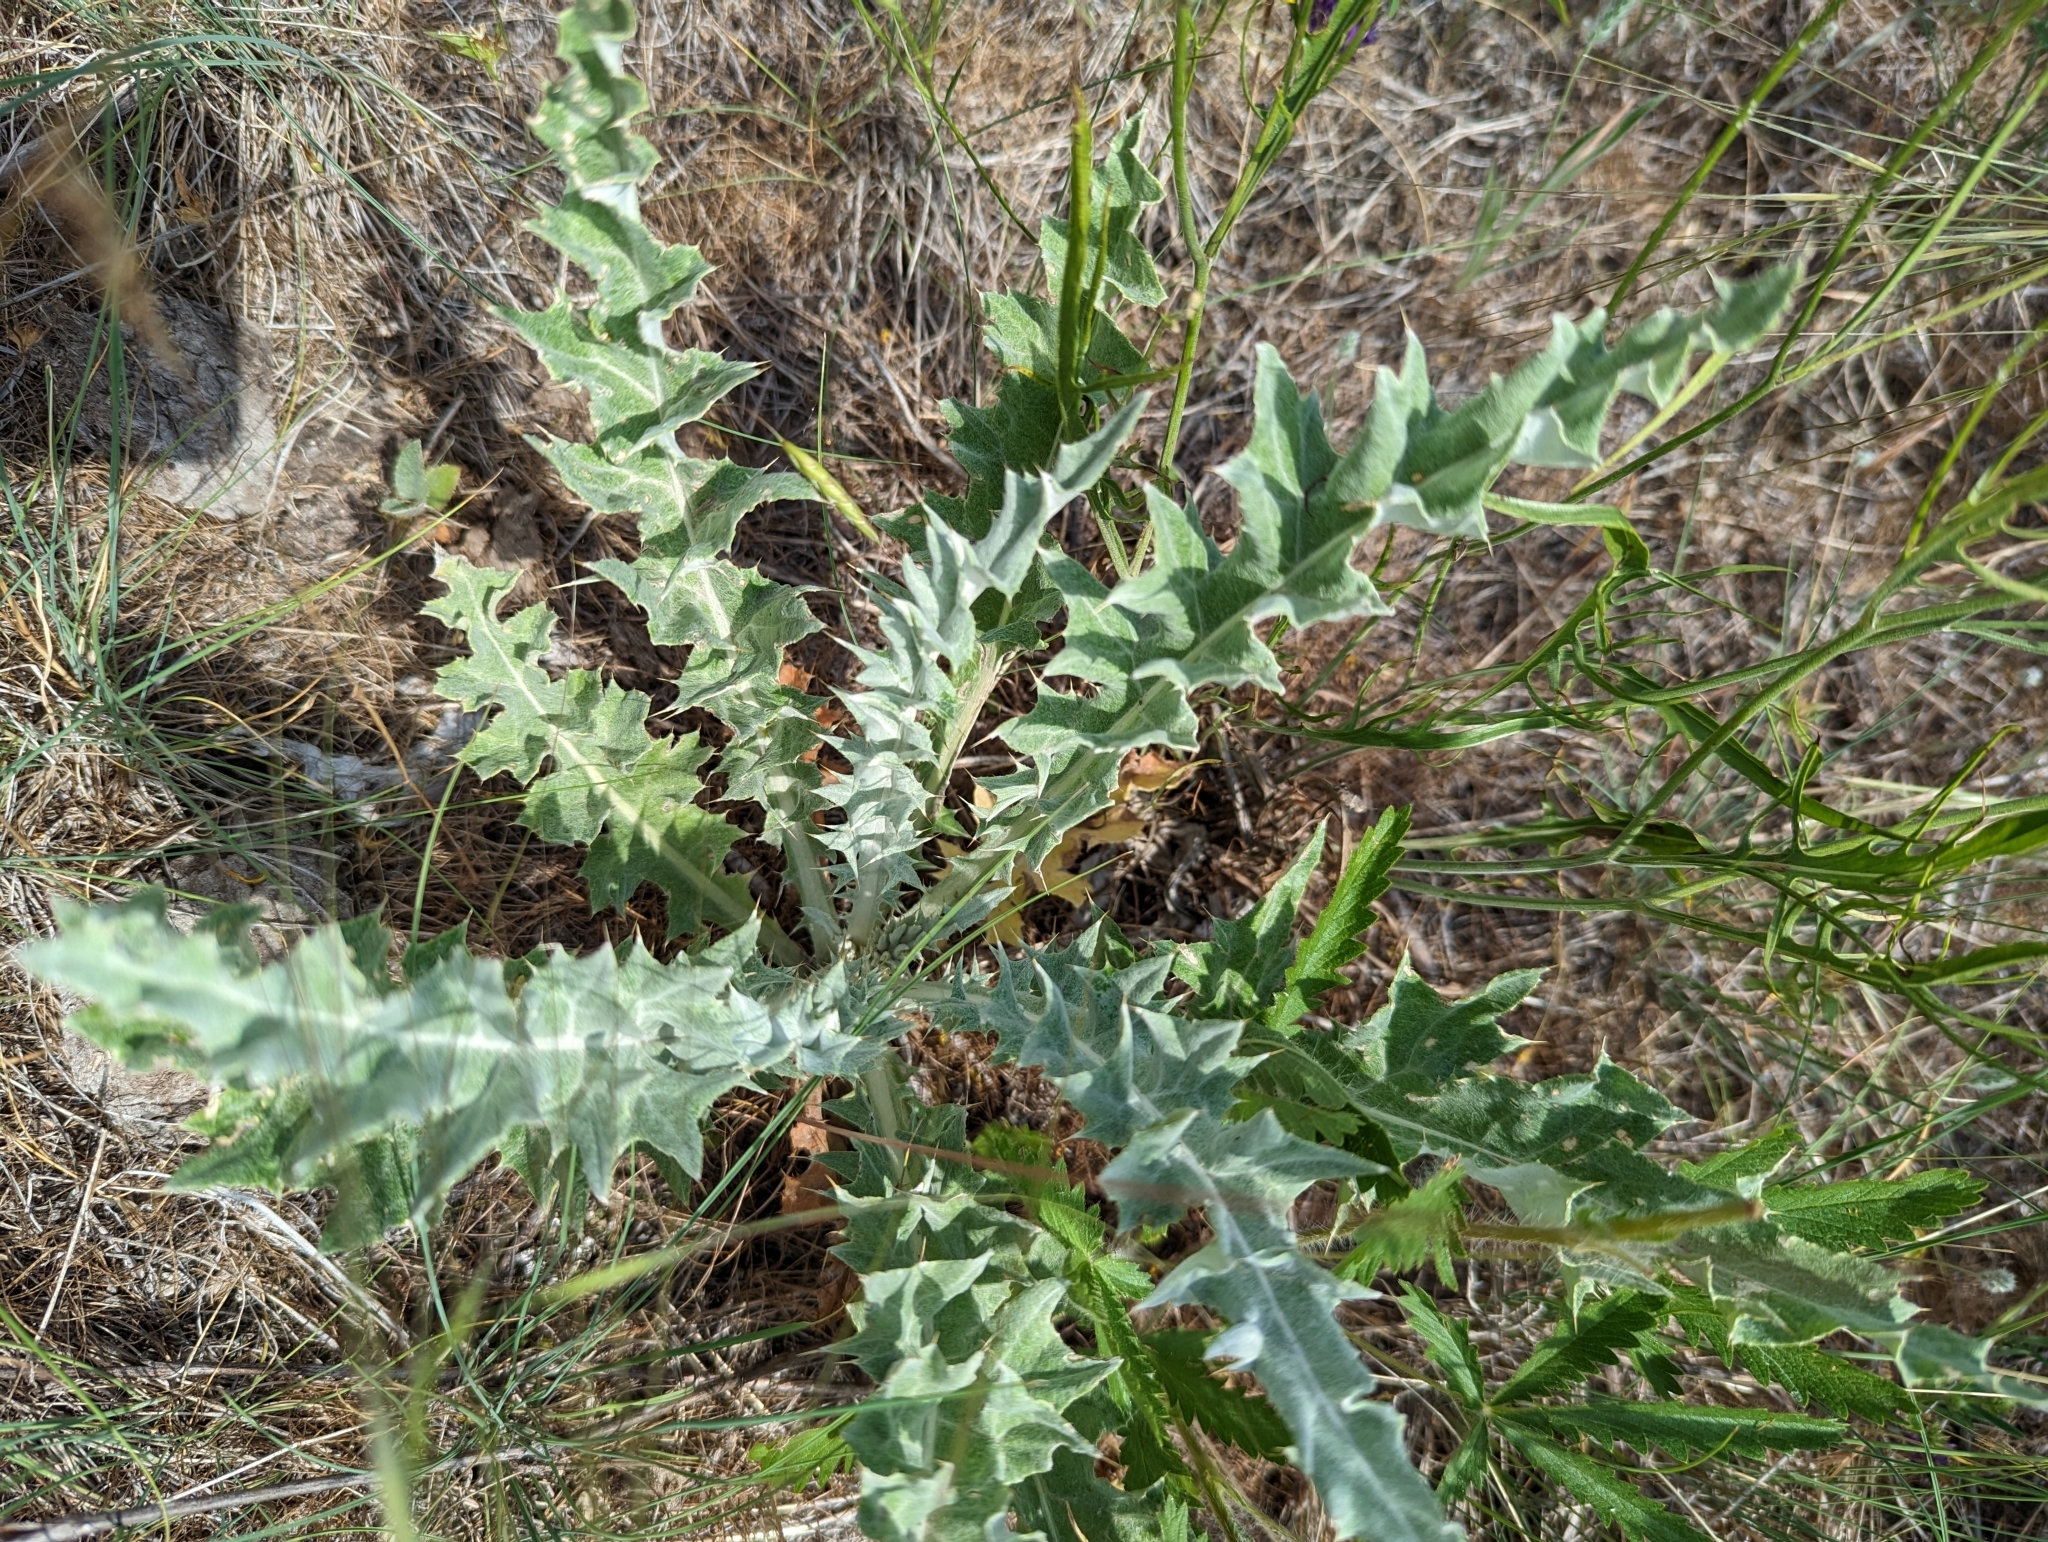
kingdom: Plantae
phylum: Tracheophyta
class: Magnoliopsida
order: Asterales
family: Asteraceae
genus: Cirsium
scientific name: Cirsium undulatum
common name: Pasture thistle
